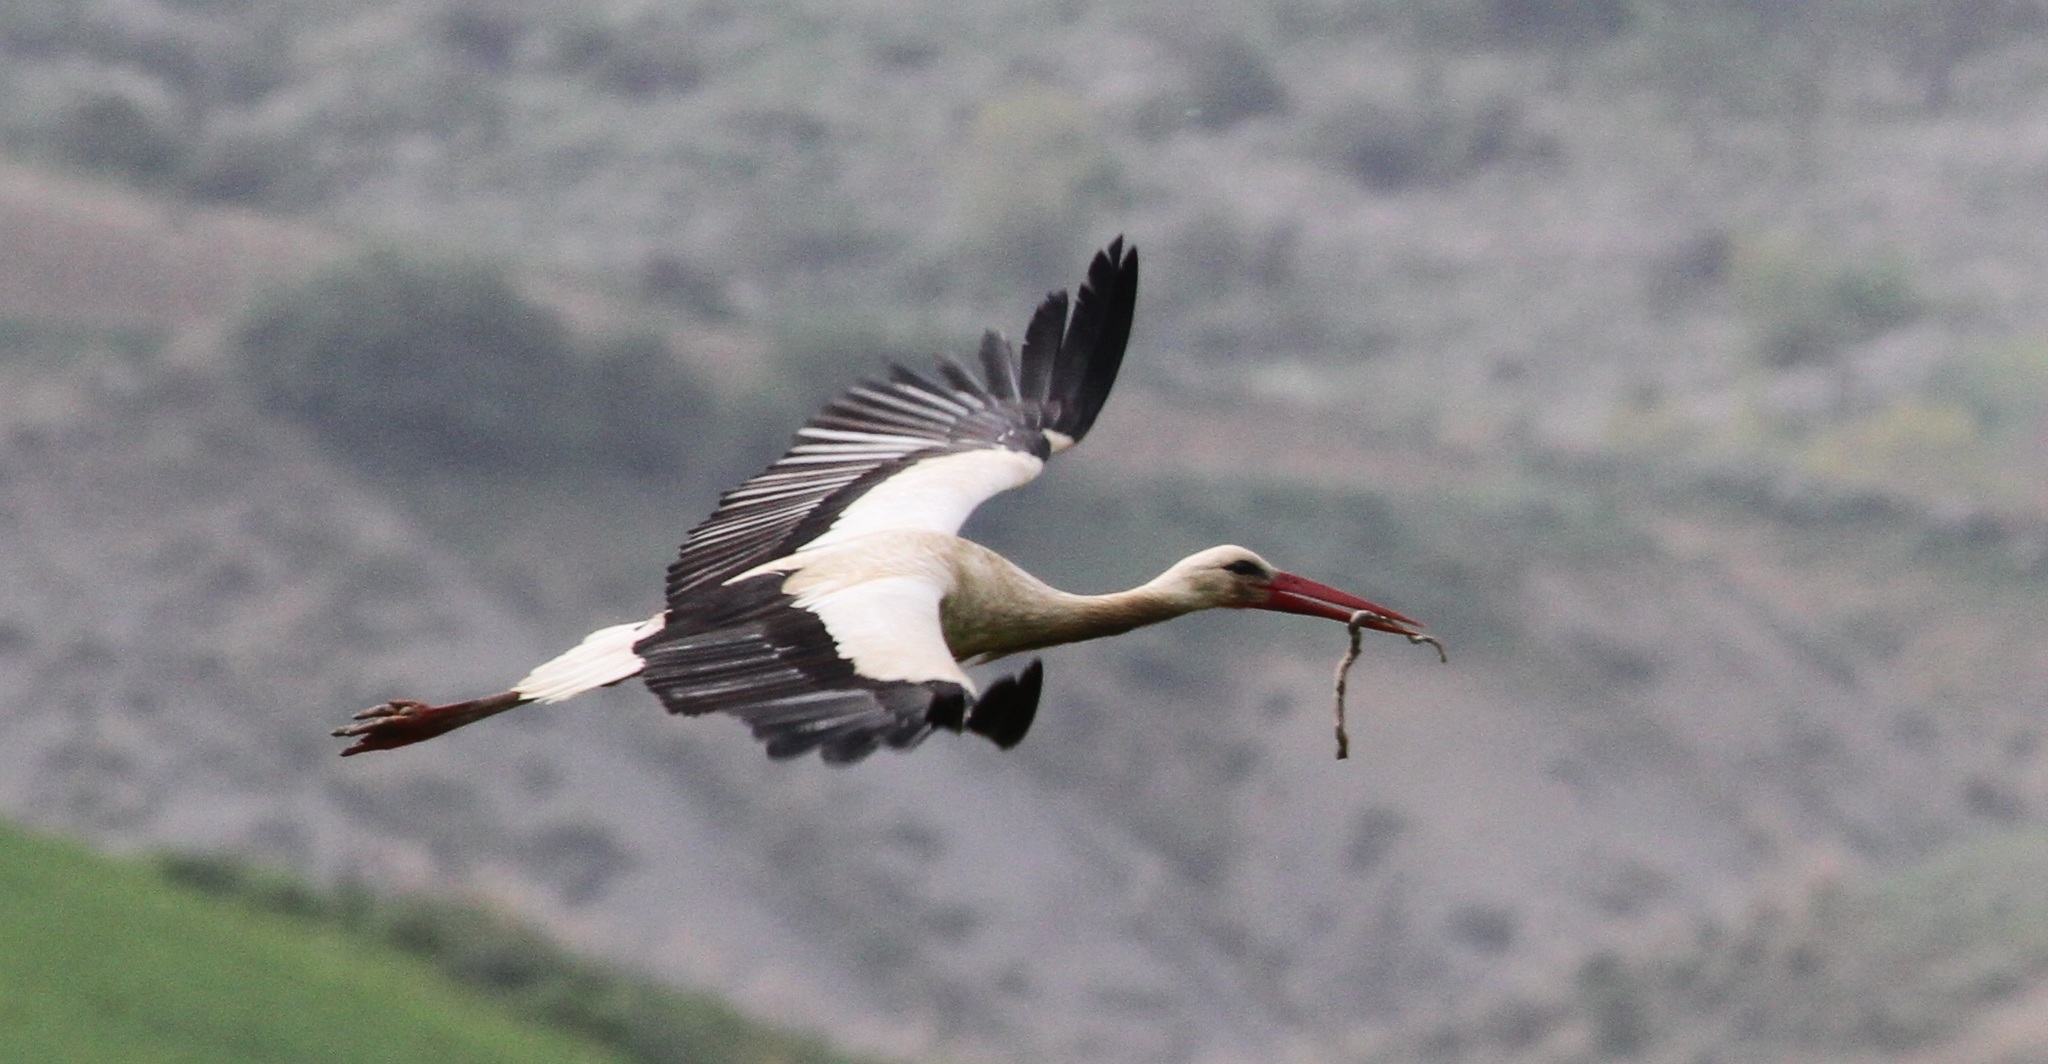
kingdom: Animalia
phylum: Chordata
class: Aves
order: Ciconiiformes
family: Ciconiidae
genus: Ciconia
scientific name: Ciconia ciconia
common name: White stork
